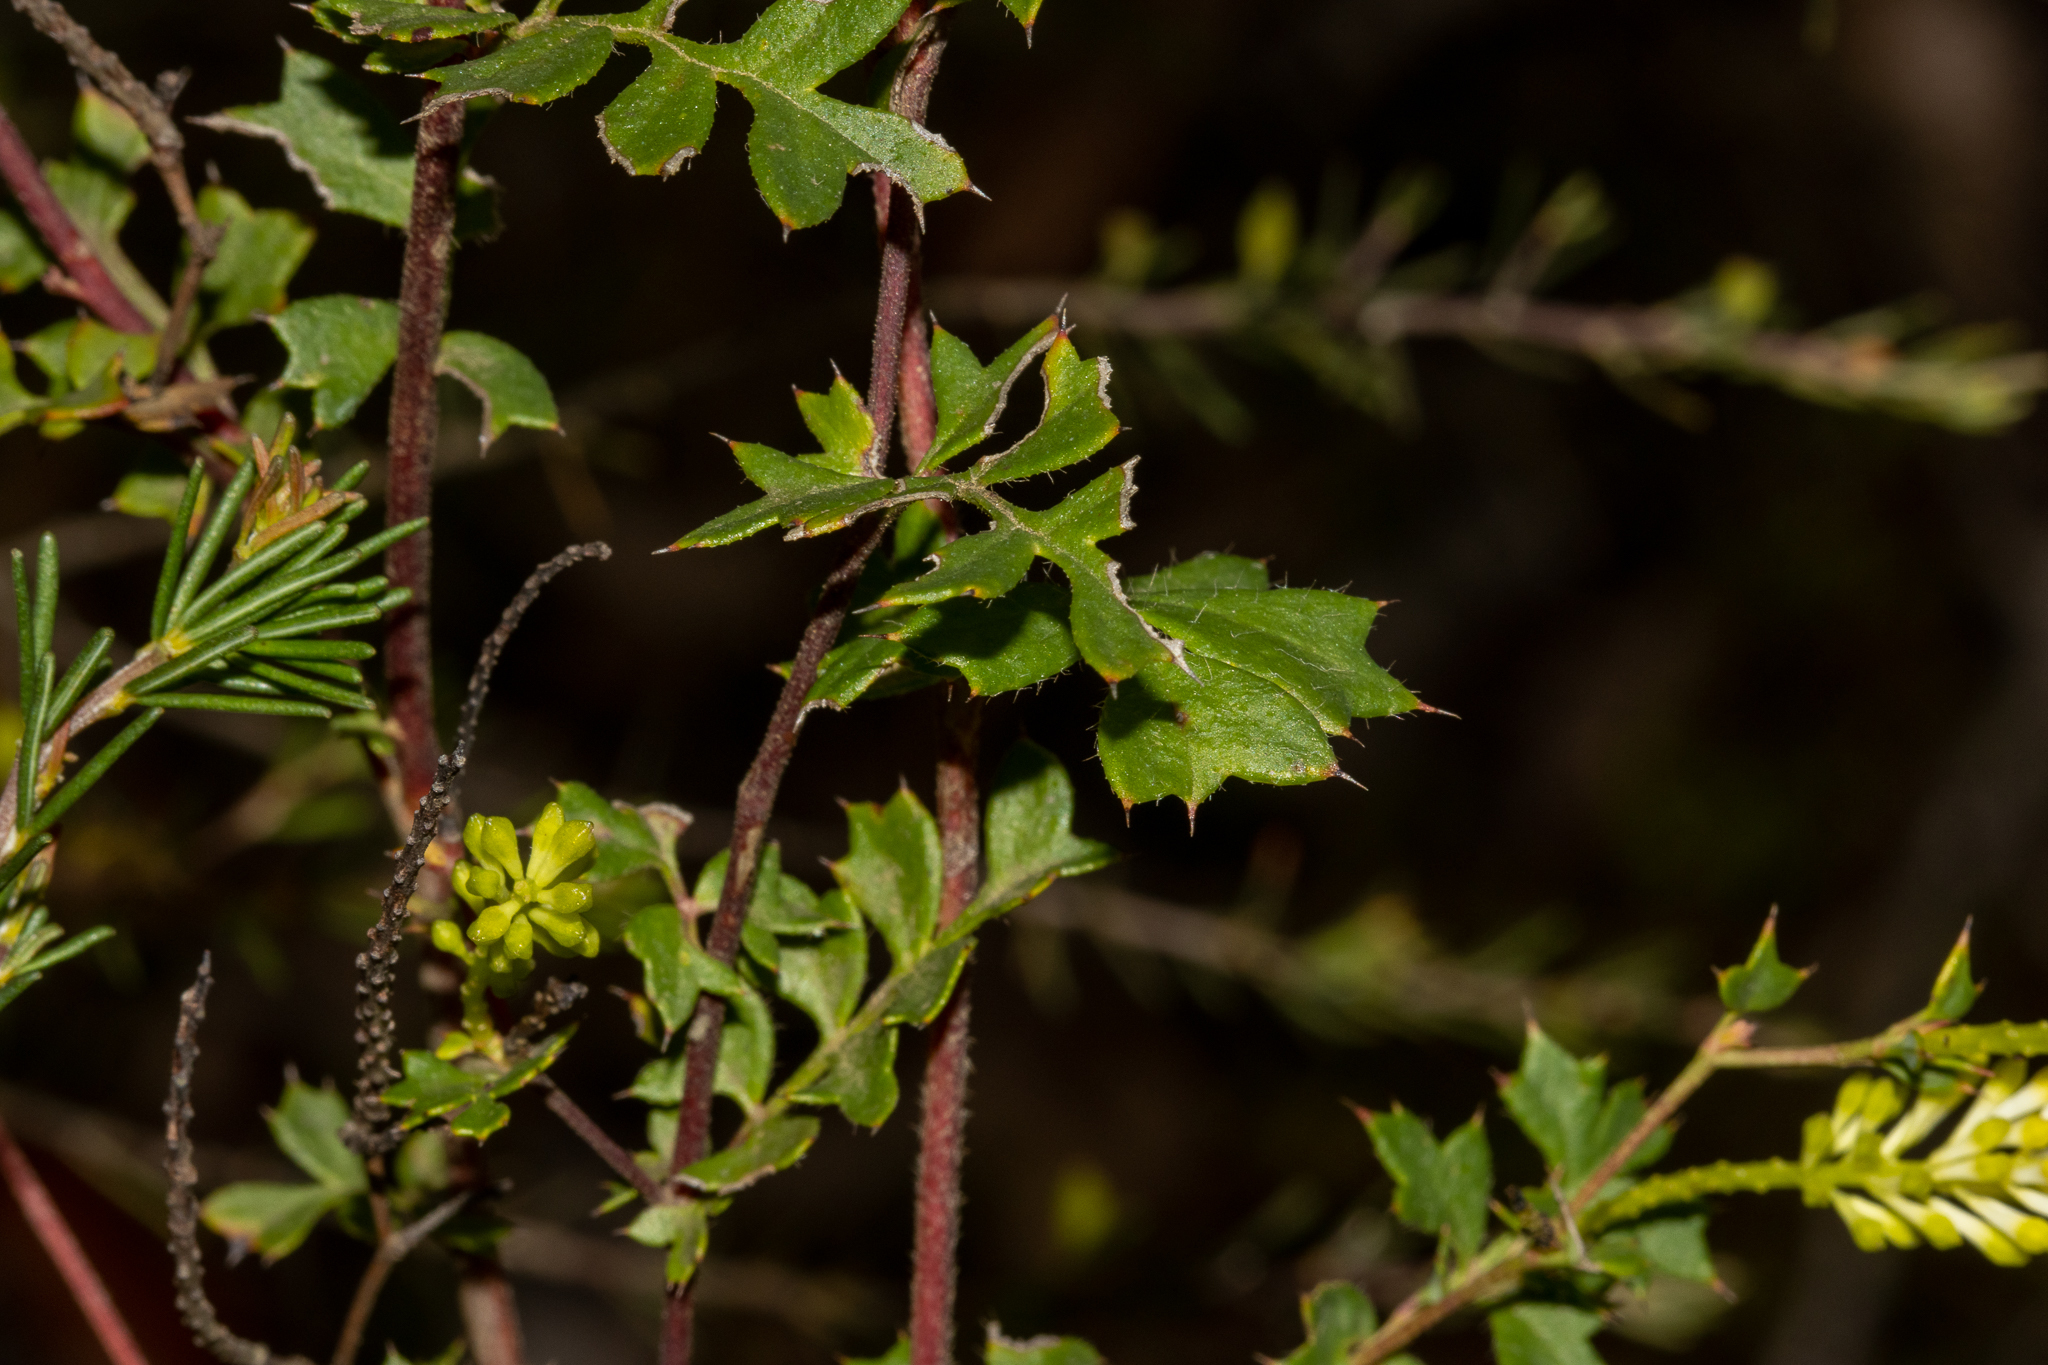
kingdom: Plantae
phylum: Tracheophyta
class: Magnoliopsida
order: Proteales
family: Proteaceae
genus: Grevillea
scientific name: Grevillea pulchella
